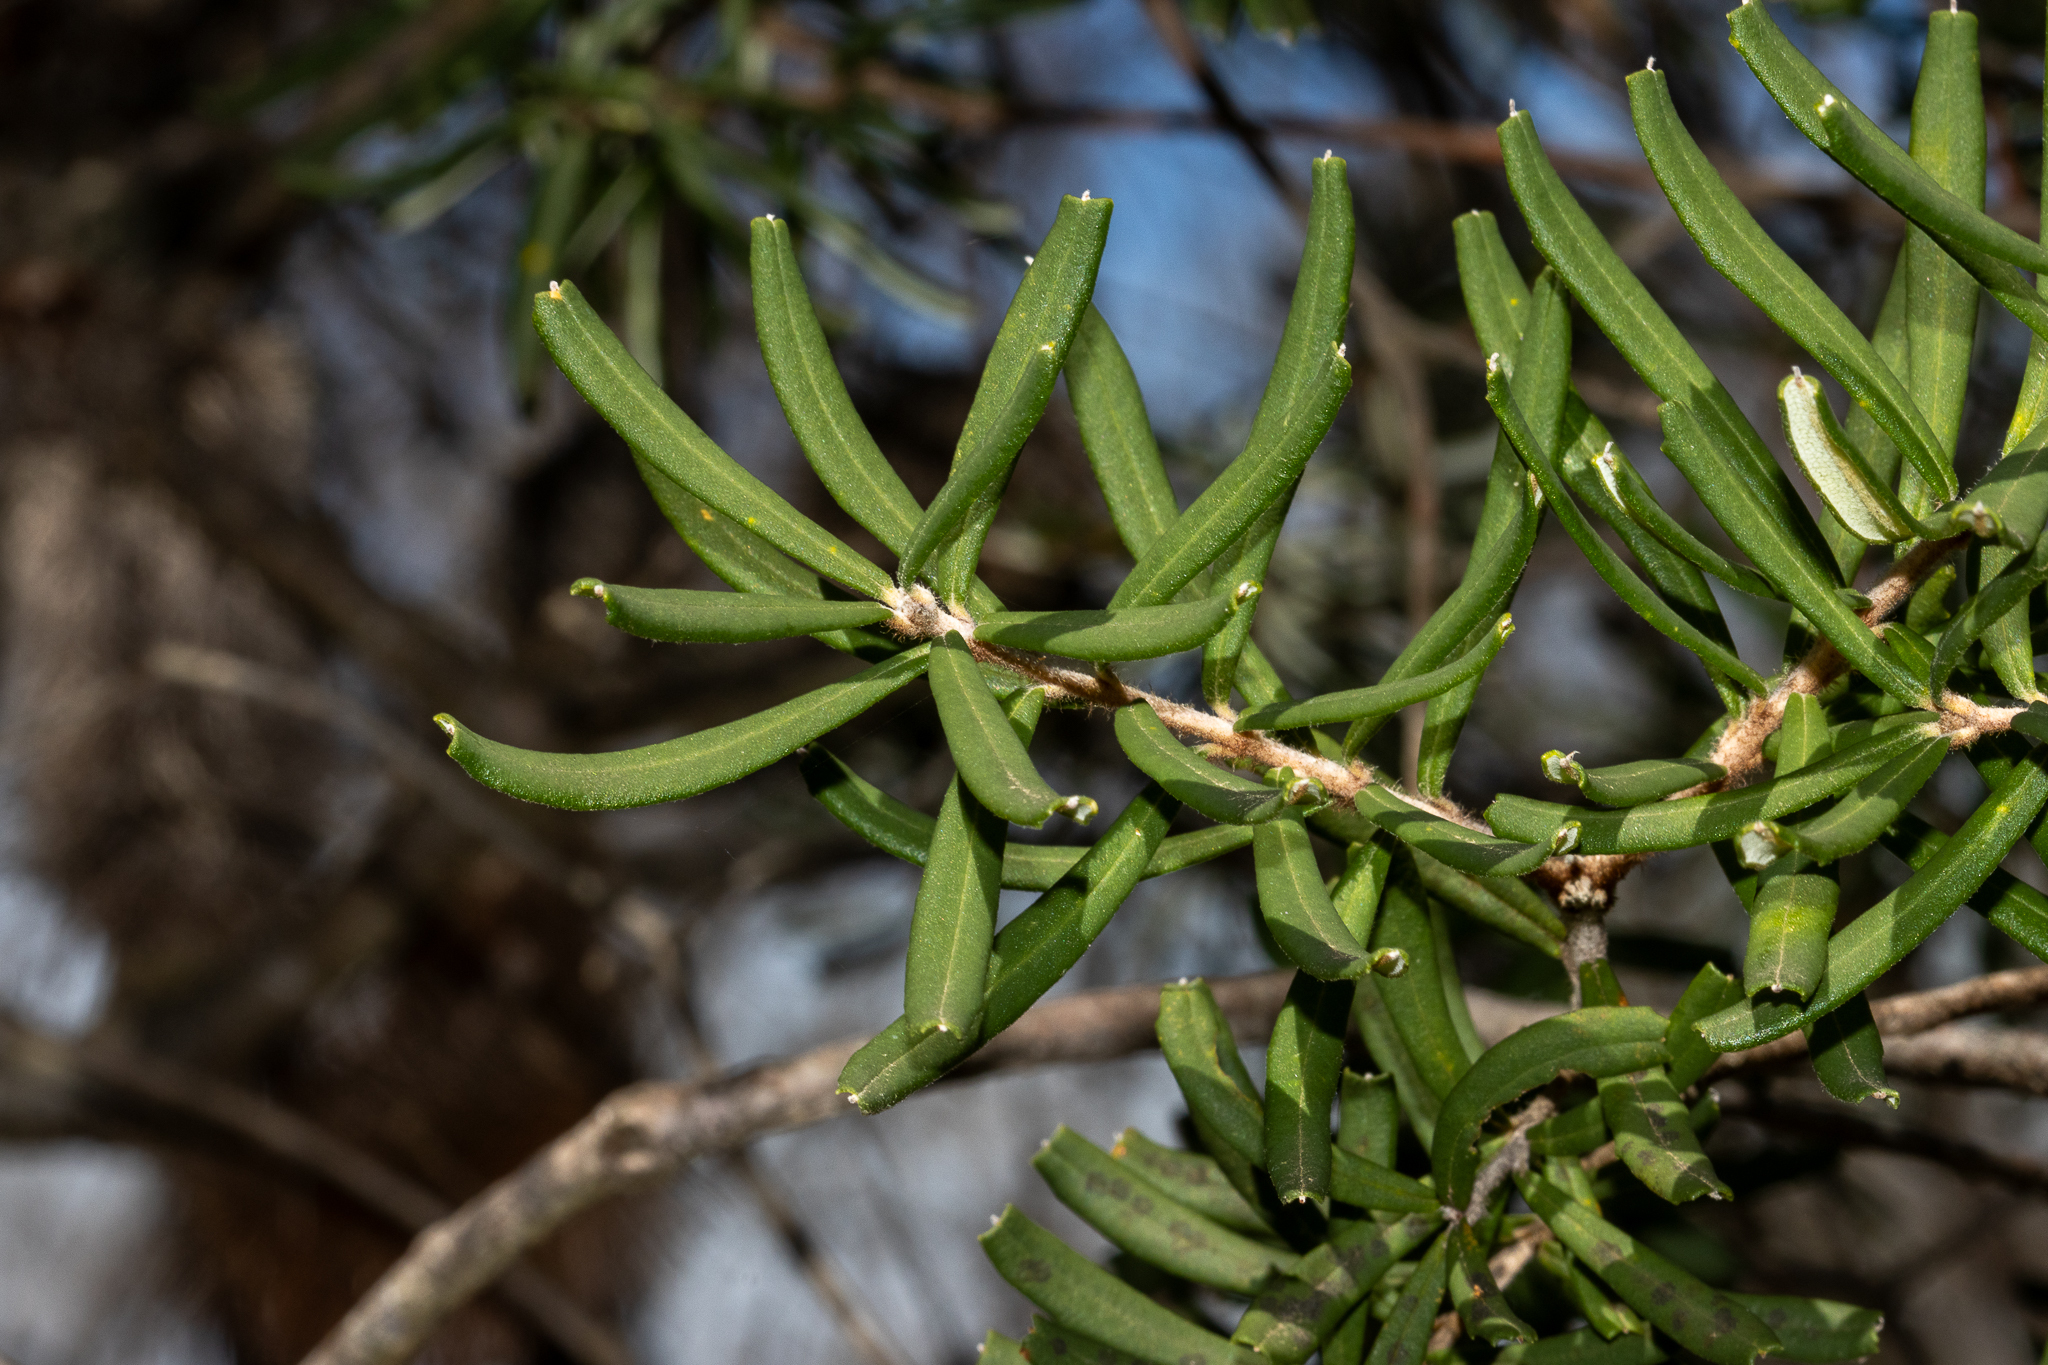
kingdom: Plantae
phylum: Tracheophyta
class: Magnoliopsida
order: Proteales
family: Proteaceae
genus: Banksia
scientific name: Banksia marginata
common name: Silver banksia
